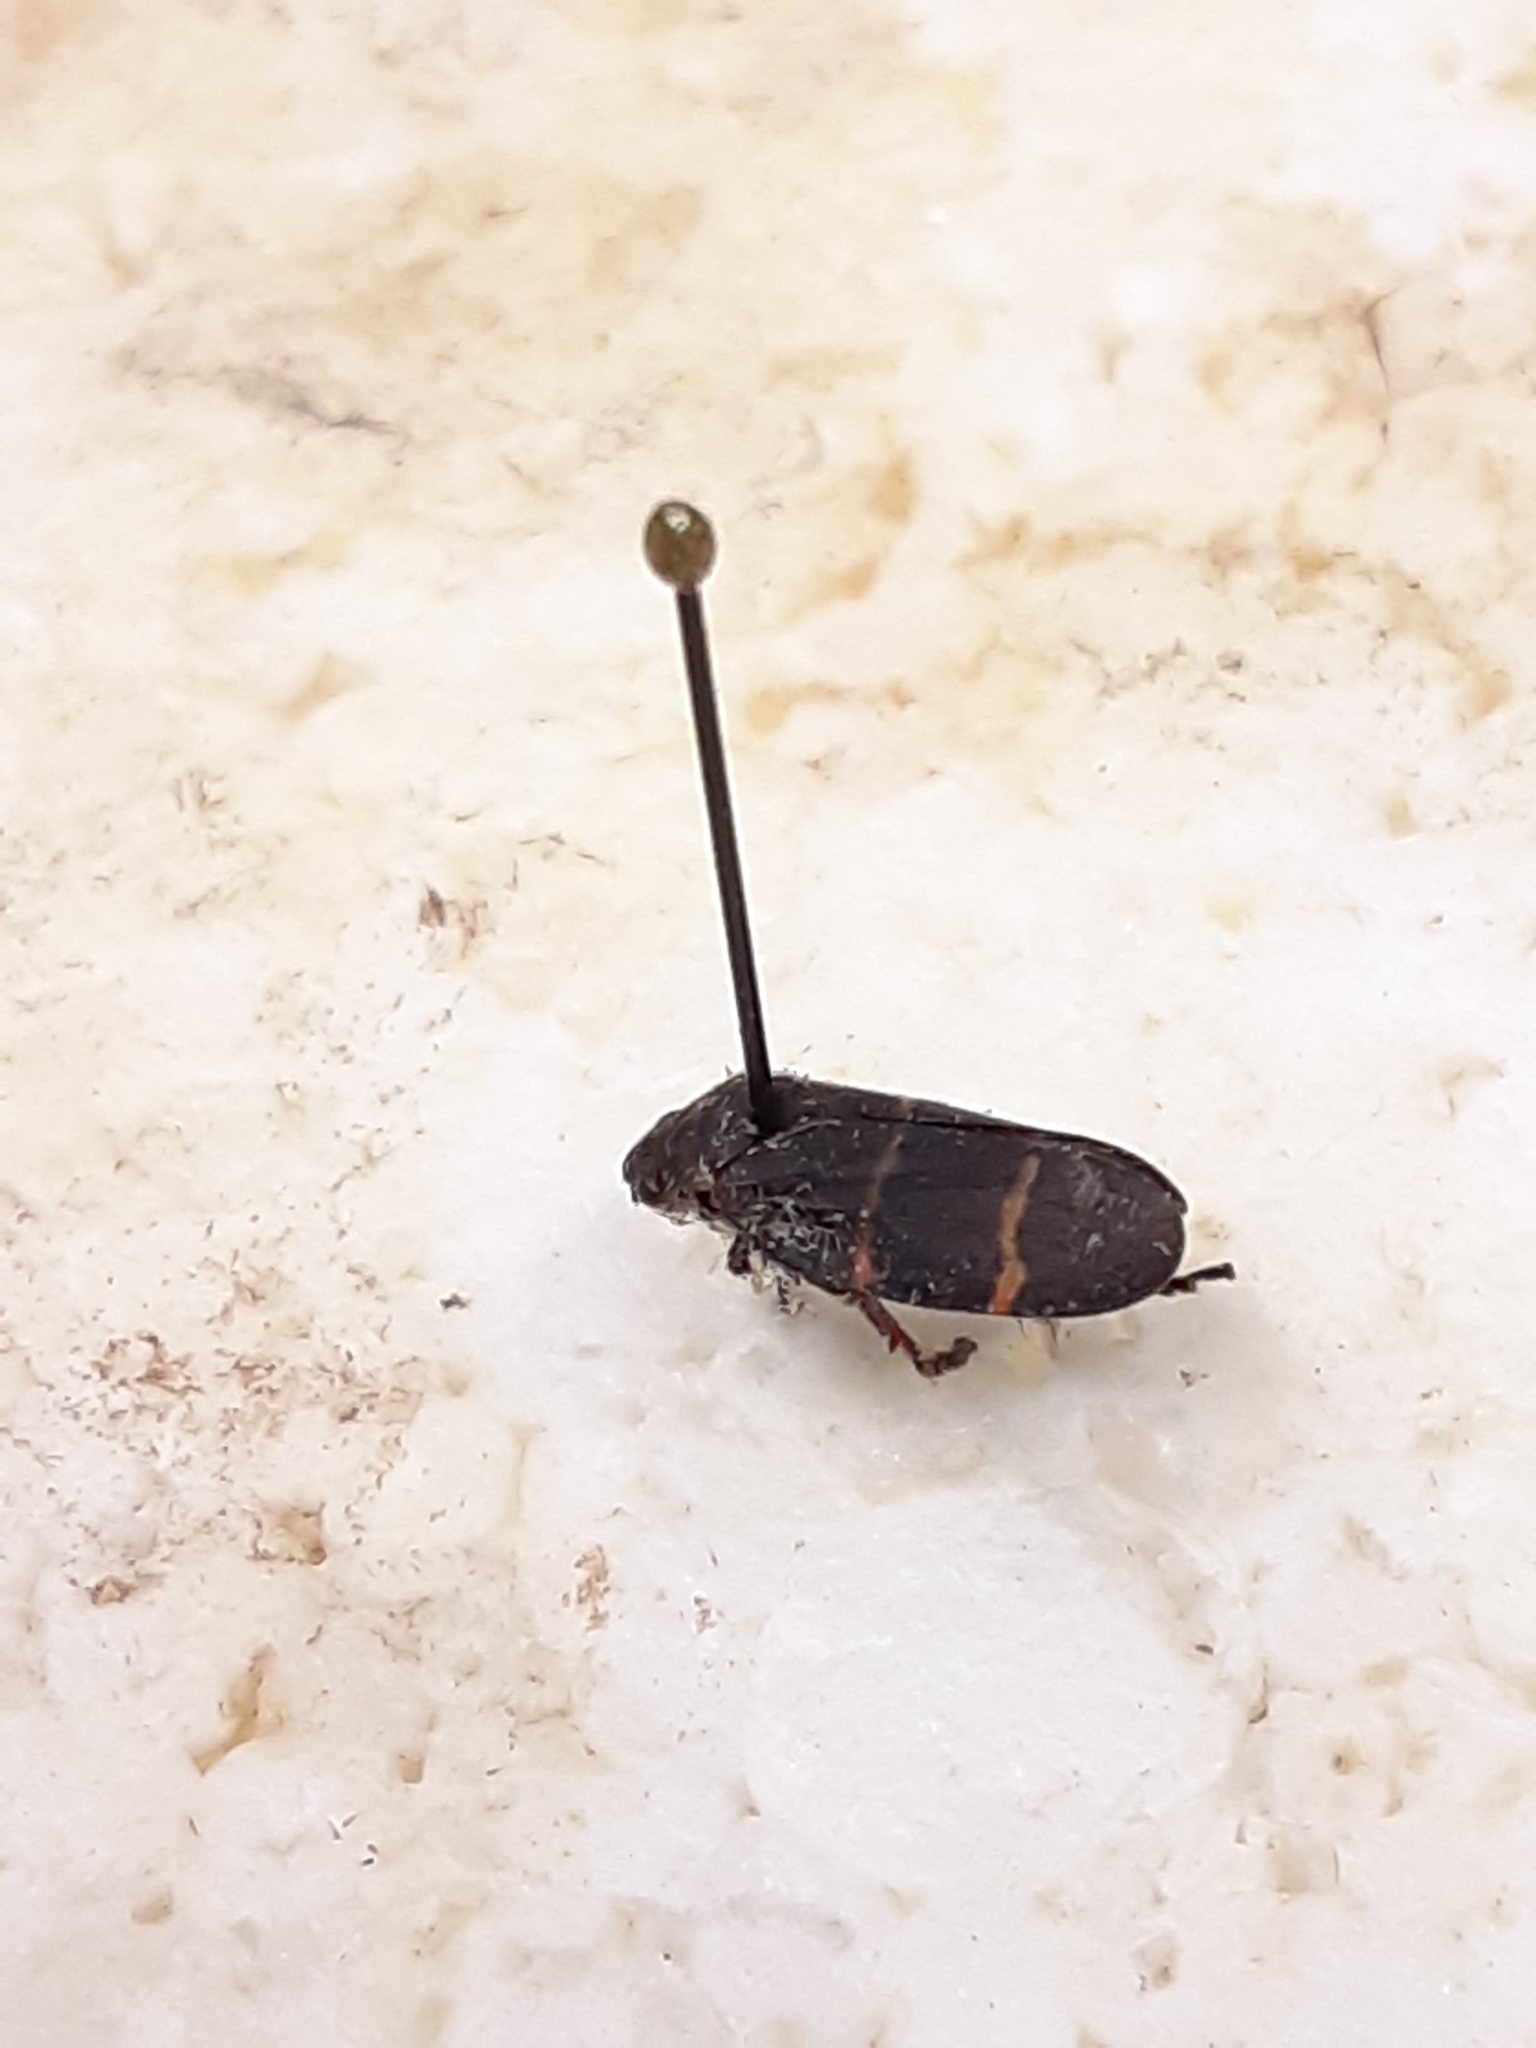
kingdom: Animalia
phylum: Arthropoda
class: Insecta
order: Hemiptera
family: Cercopidae
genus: Prosapia
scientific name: Prosapia bicincta
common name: Twolined spittlebug
